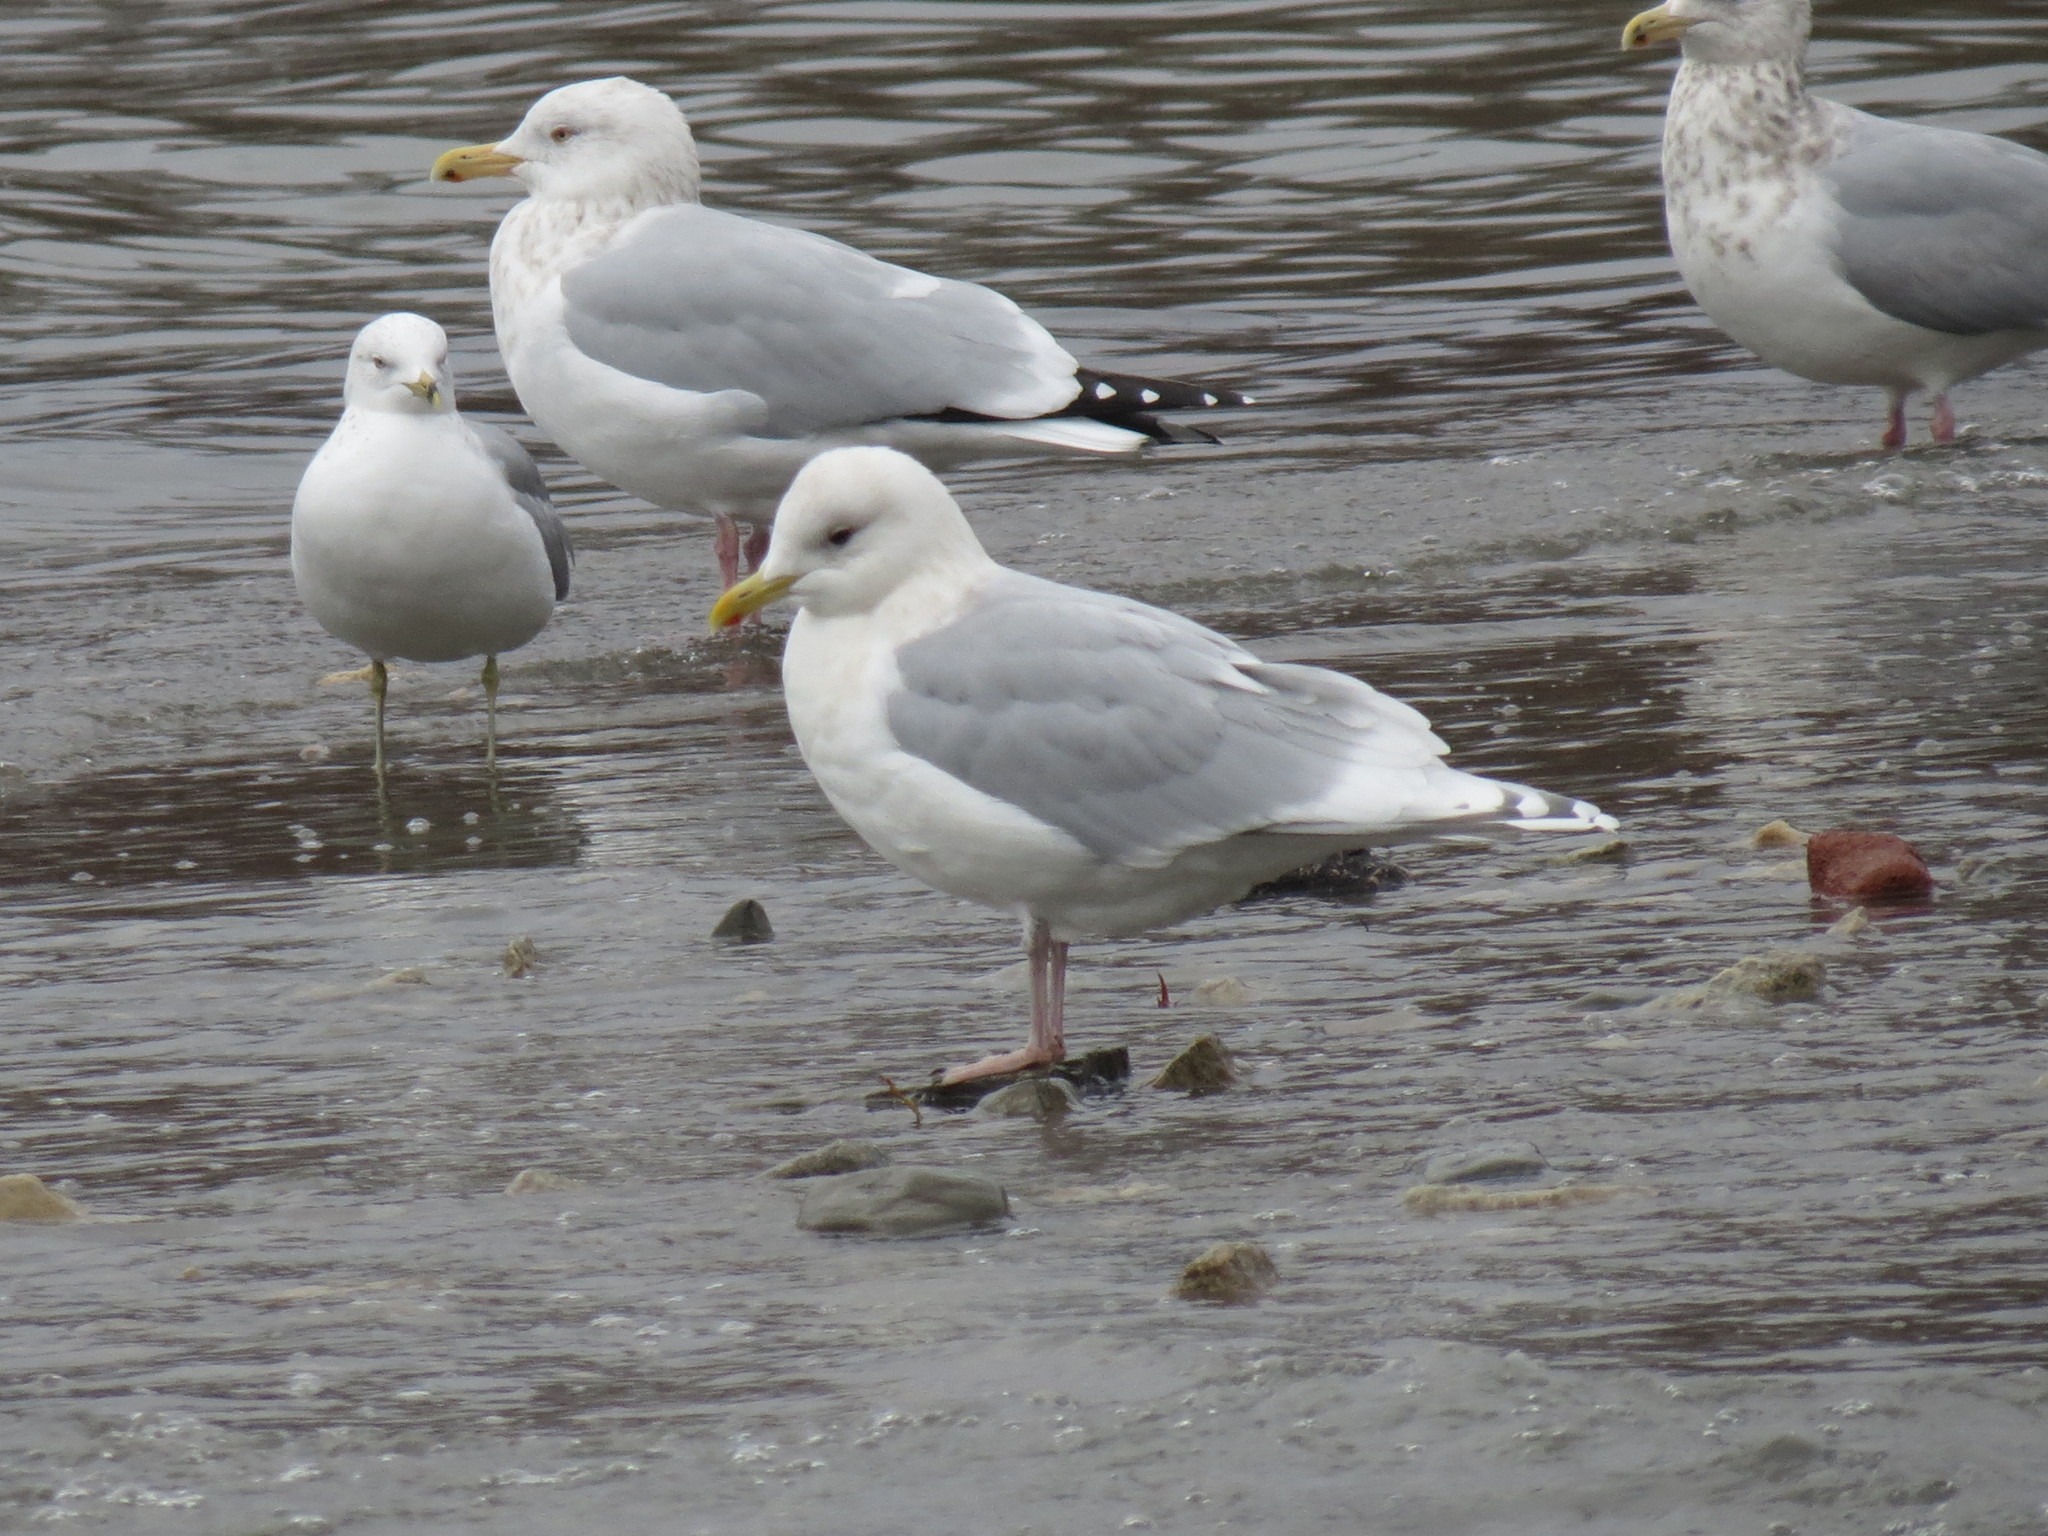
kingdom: Animalia
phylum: Chordata
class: Aves
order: Charadriiformes
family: Laridae
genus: Larus
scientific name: Larus glaucoides
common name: Iceland gull
